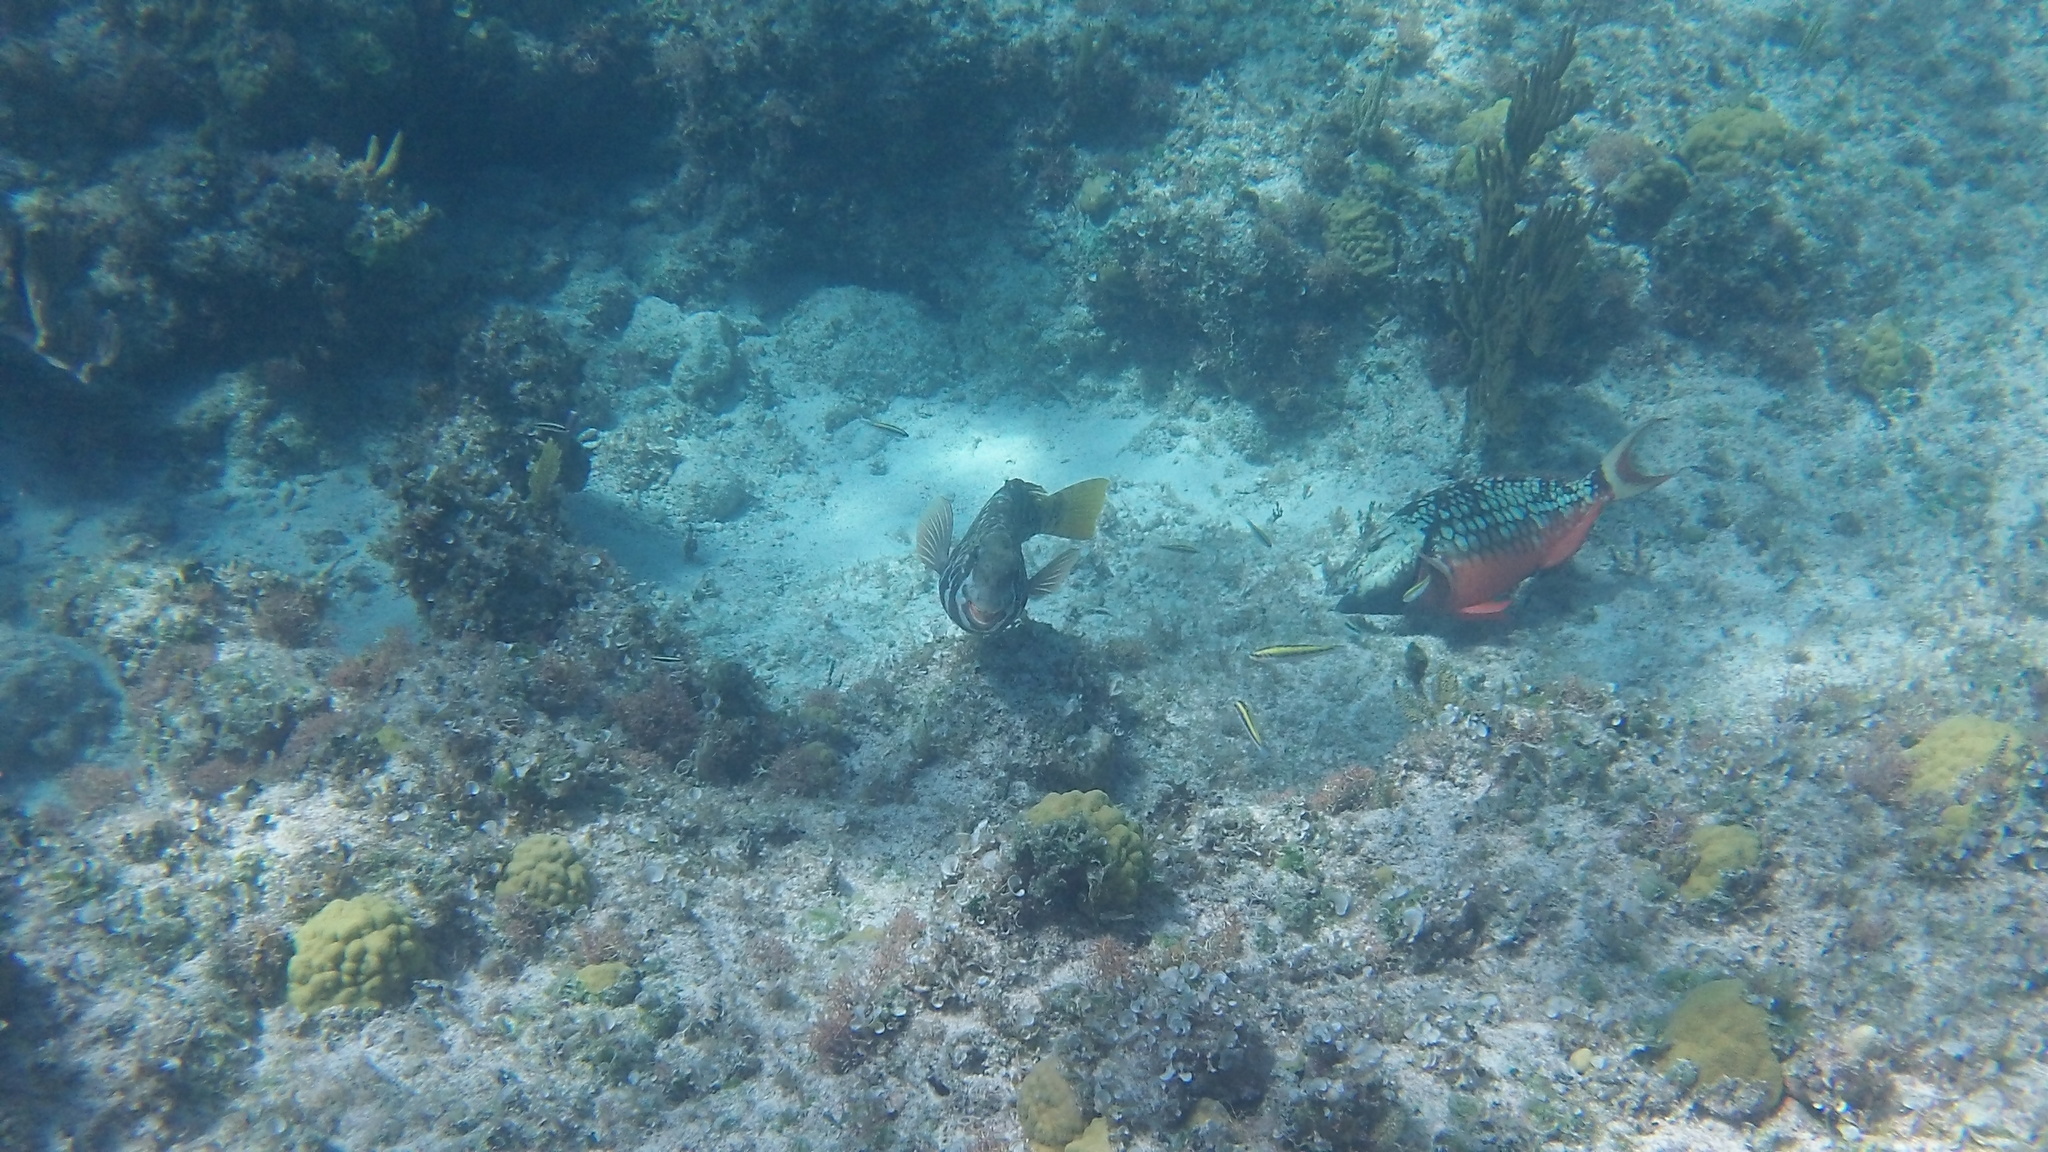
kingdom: Animalia
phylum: Chordata
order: Perciformes
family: Scaridae
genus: Sparisoma
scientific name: Sparisoma viride
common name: Stoplight parrotfish
